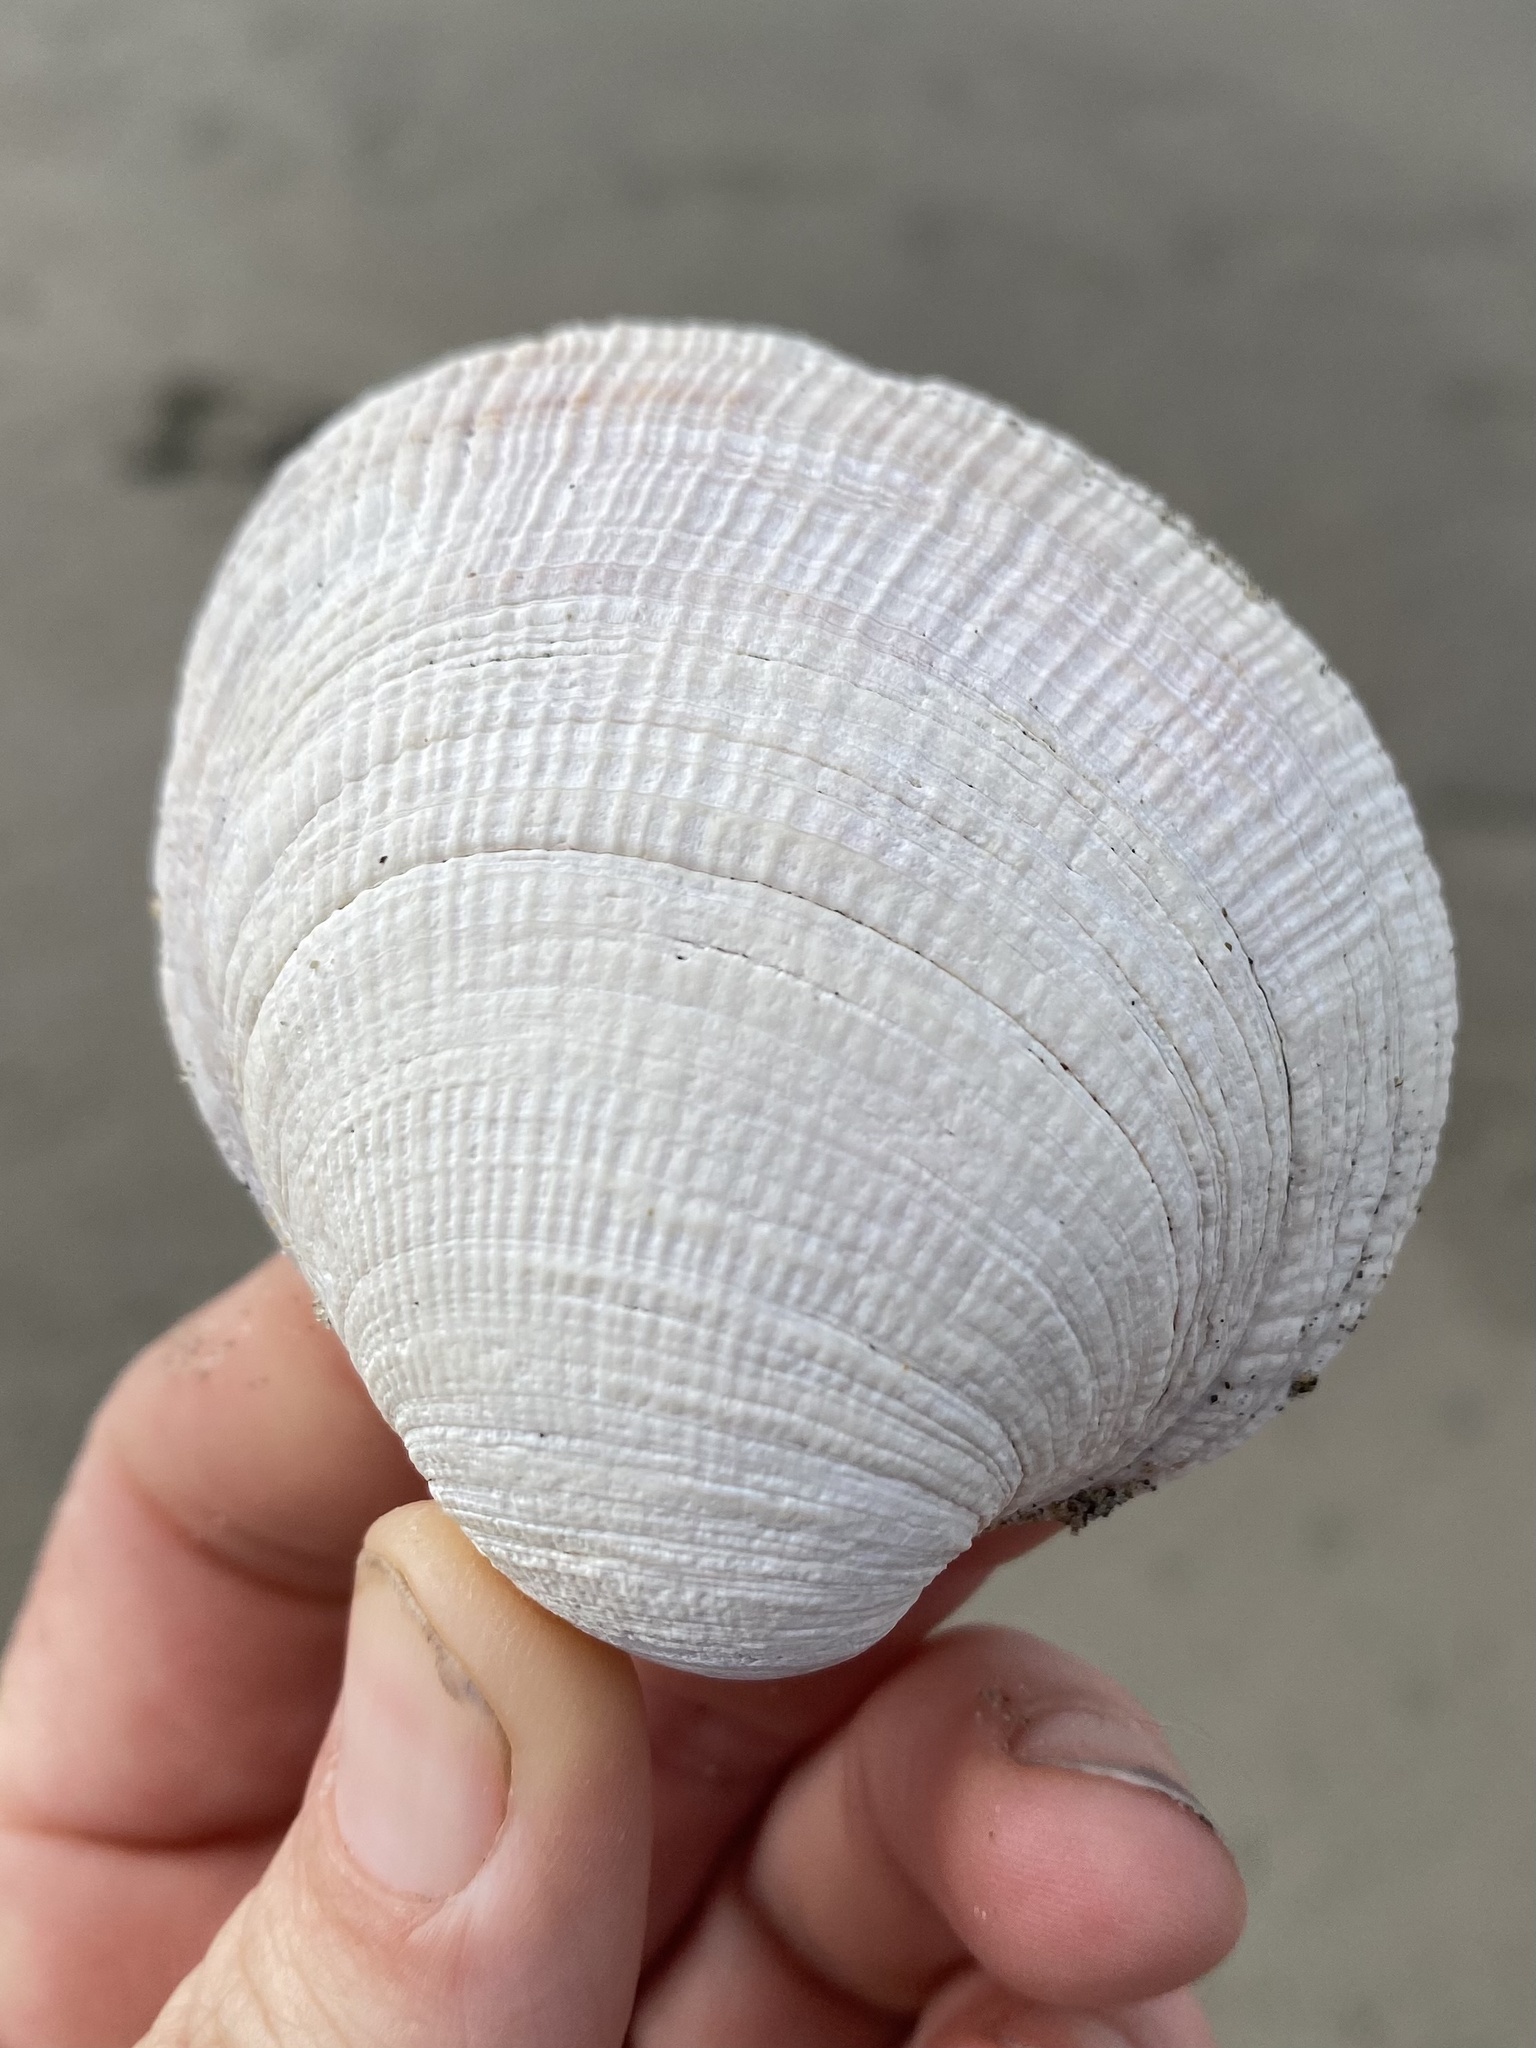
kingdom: Animalia
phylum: Mollusca
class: Bivalvia
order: Venerida
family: Veneridae
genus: Leukoma
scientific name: Leukoma staminea
